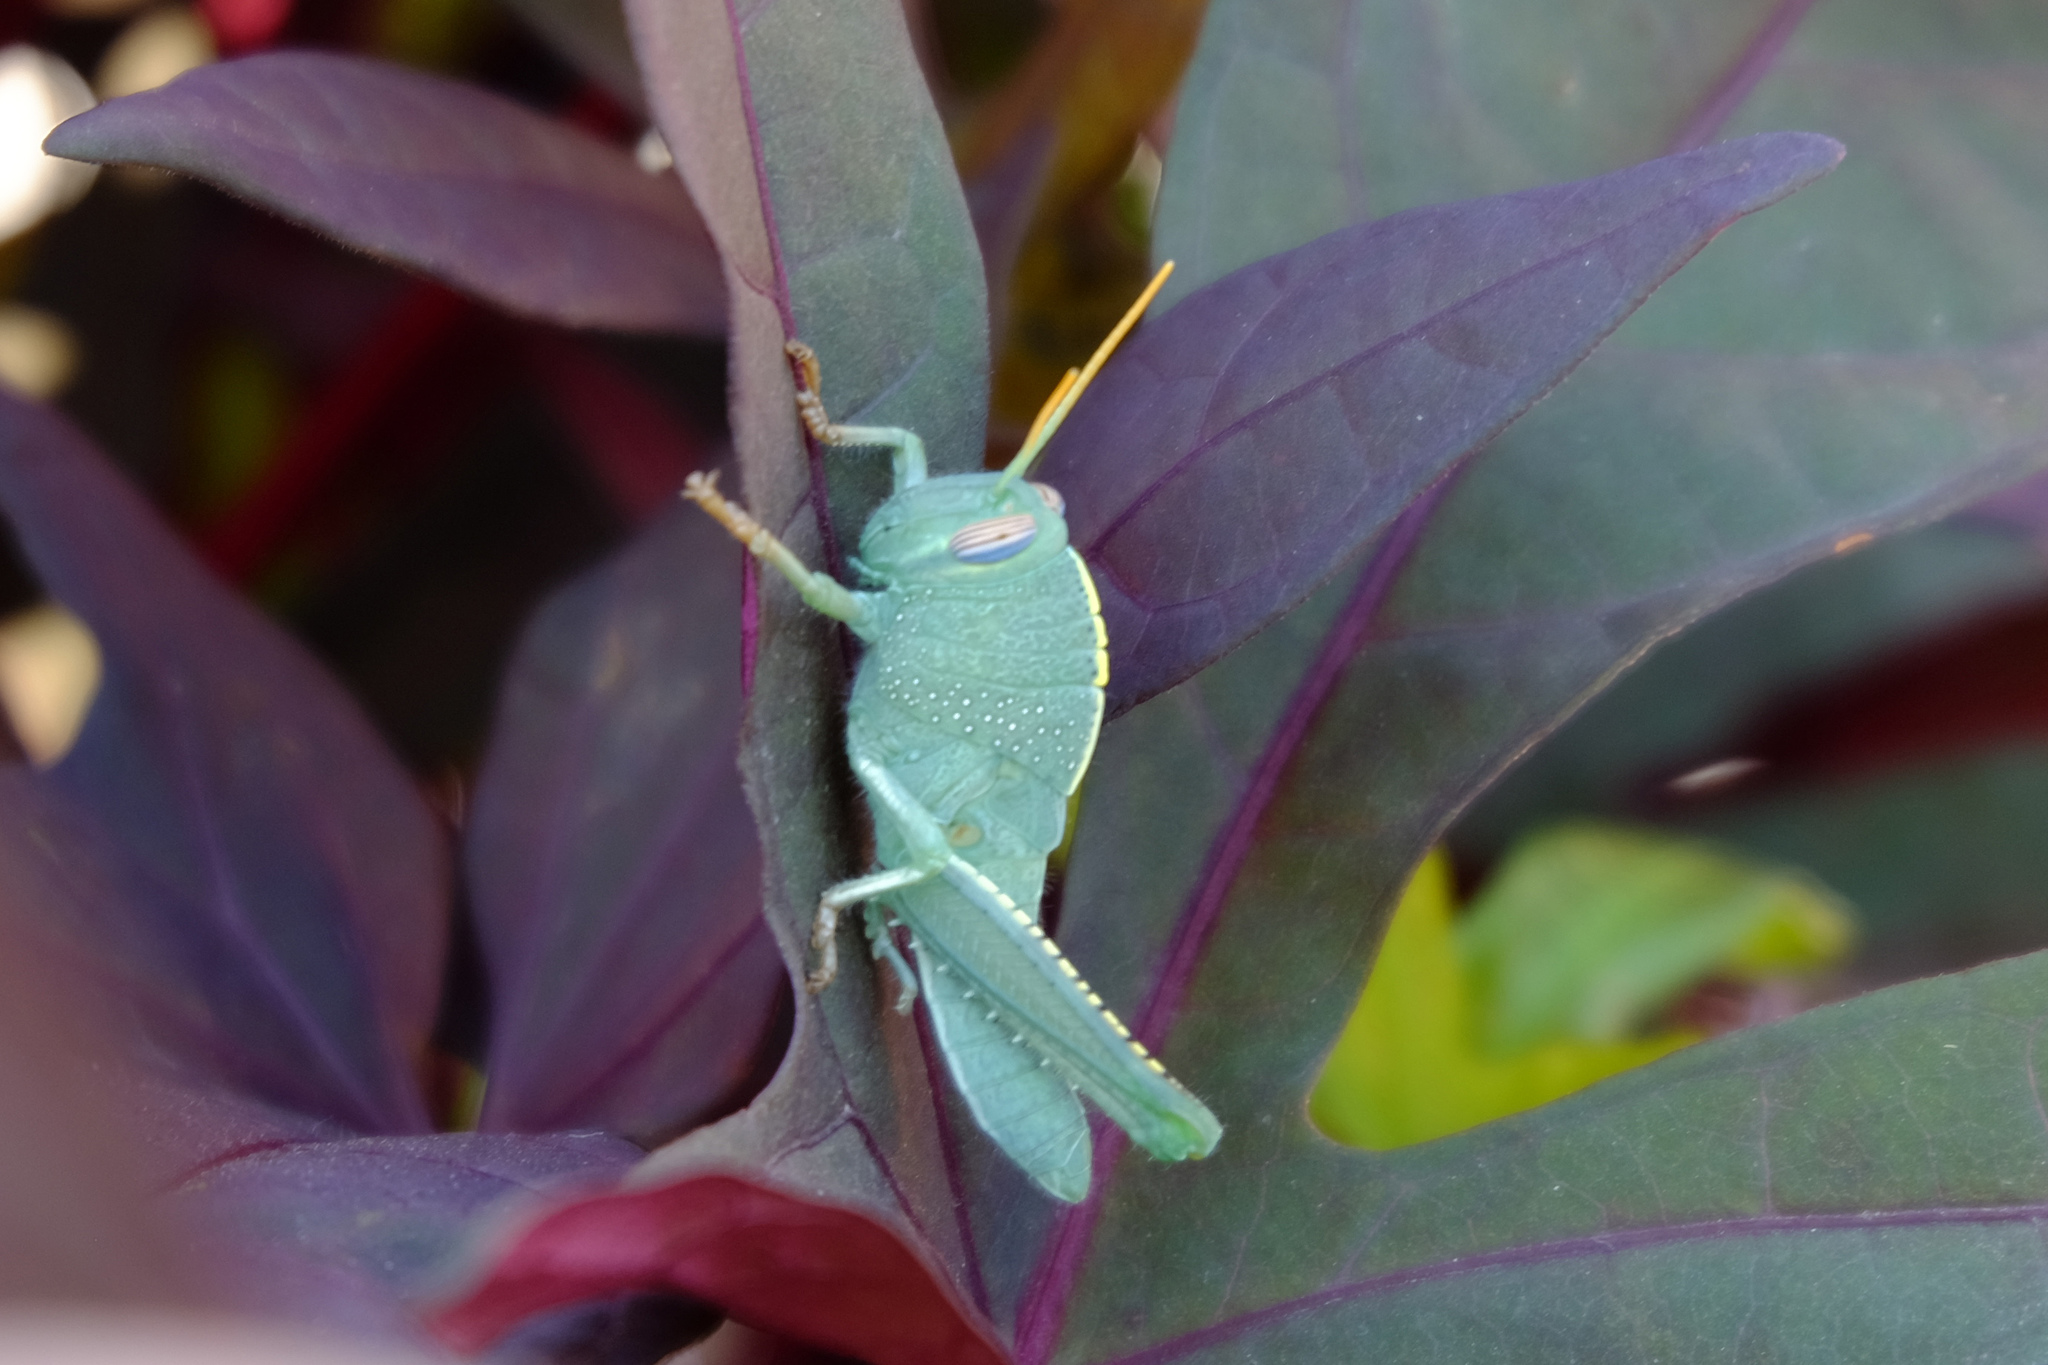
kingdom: Animalia
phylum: Arthropoda
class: Insecta
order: Orthoptera
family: Acrididae
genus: Anacridium
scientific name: Anacridium aegyptium
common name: Egyptian grasshopper
